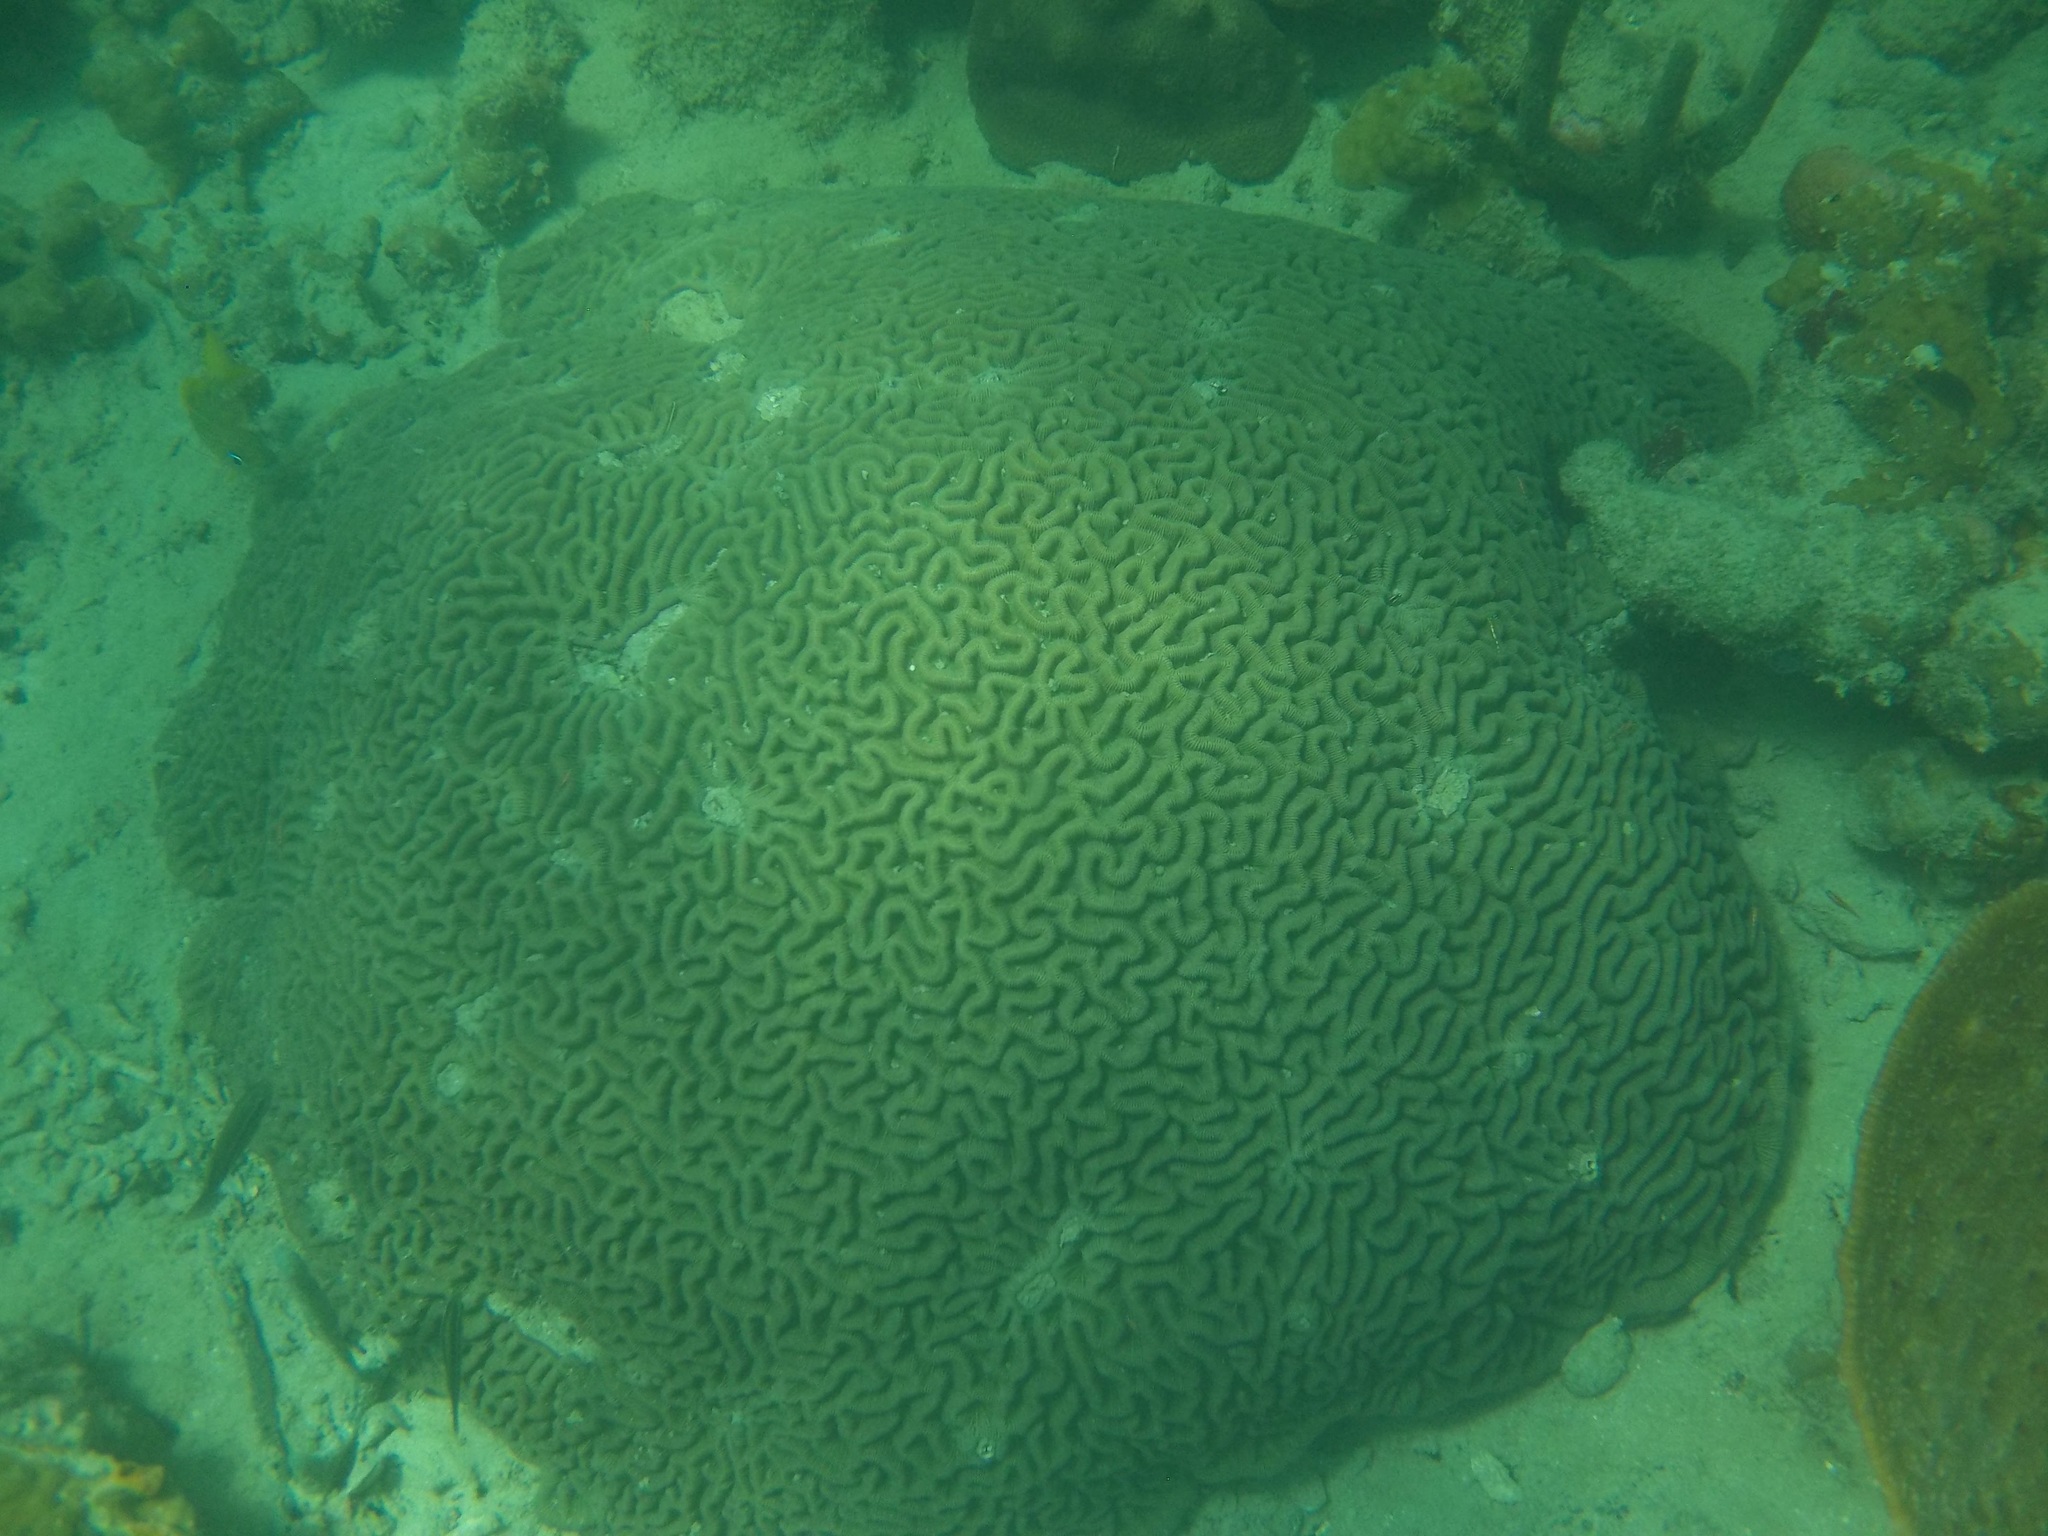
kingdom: Animalia
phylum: Cnidaria
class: Anthozoa
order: Scleractinia
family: Faviidae
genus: Colpophyllia
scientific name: Colpophyllia natans
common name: Boulder brain coral
